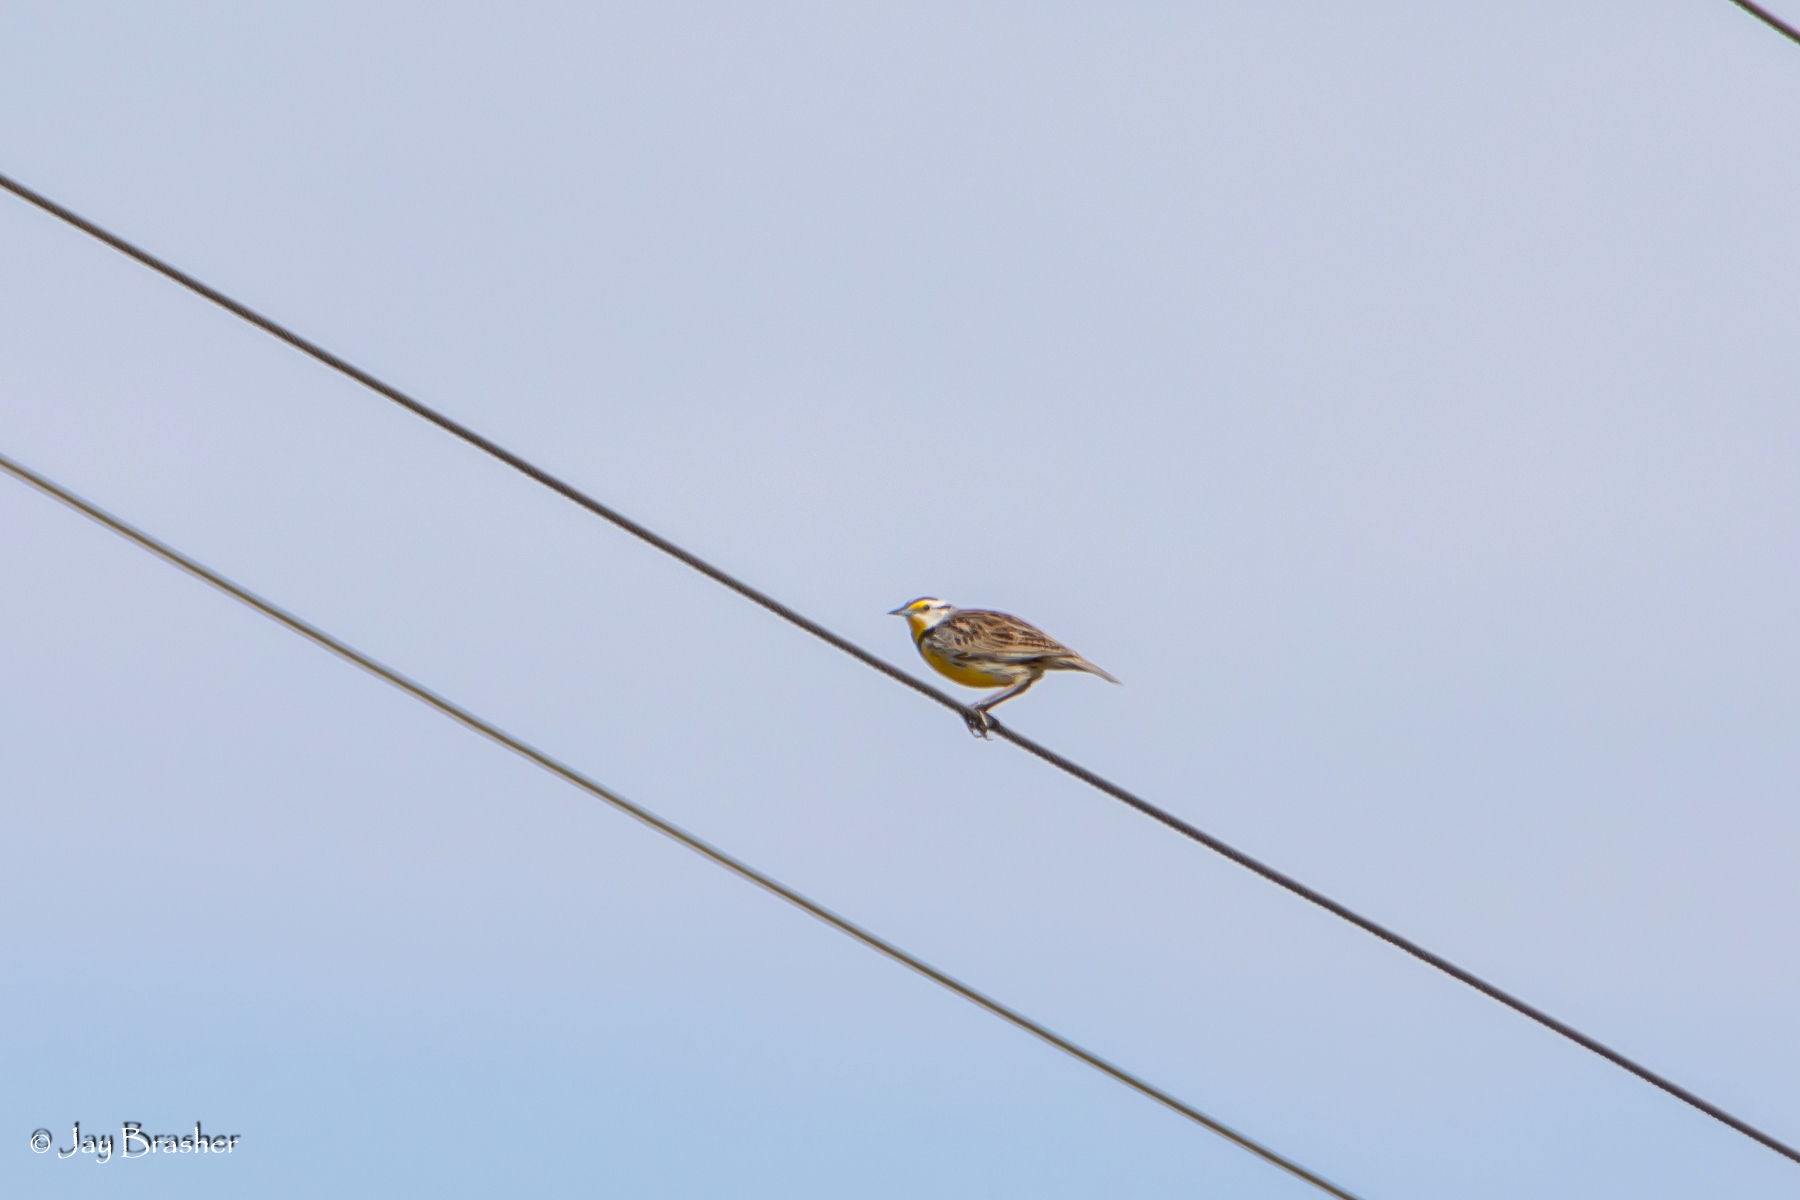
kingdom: Animalia
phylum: Chordata
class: Aves
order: Passeriformes
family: Icteridae
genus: Sturnella
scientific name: Sturnella magna
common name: Eastern meadowlark
